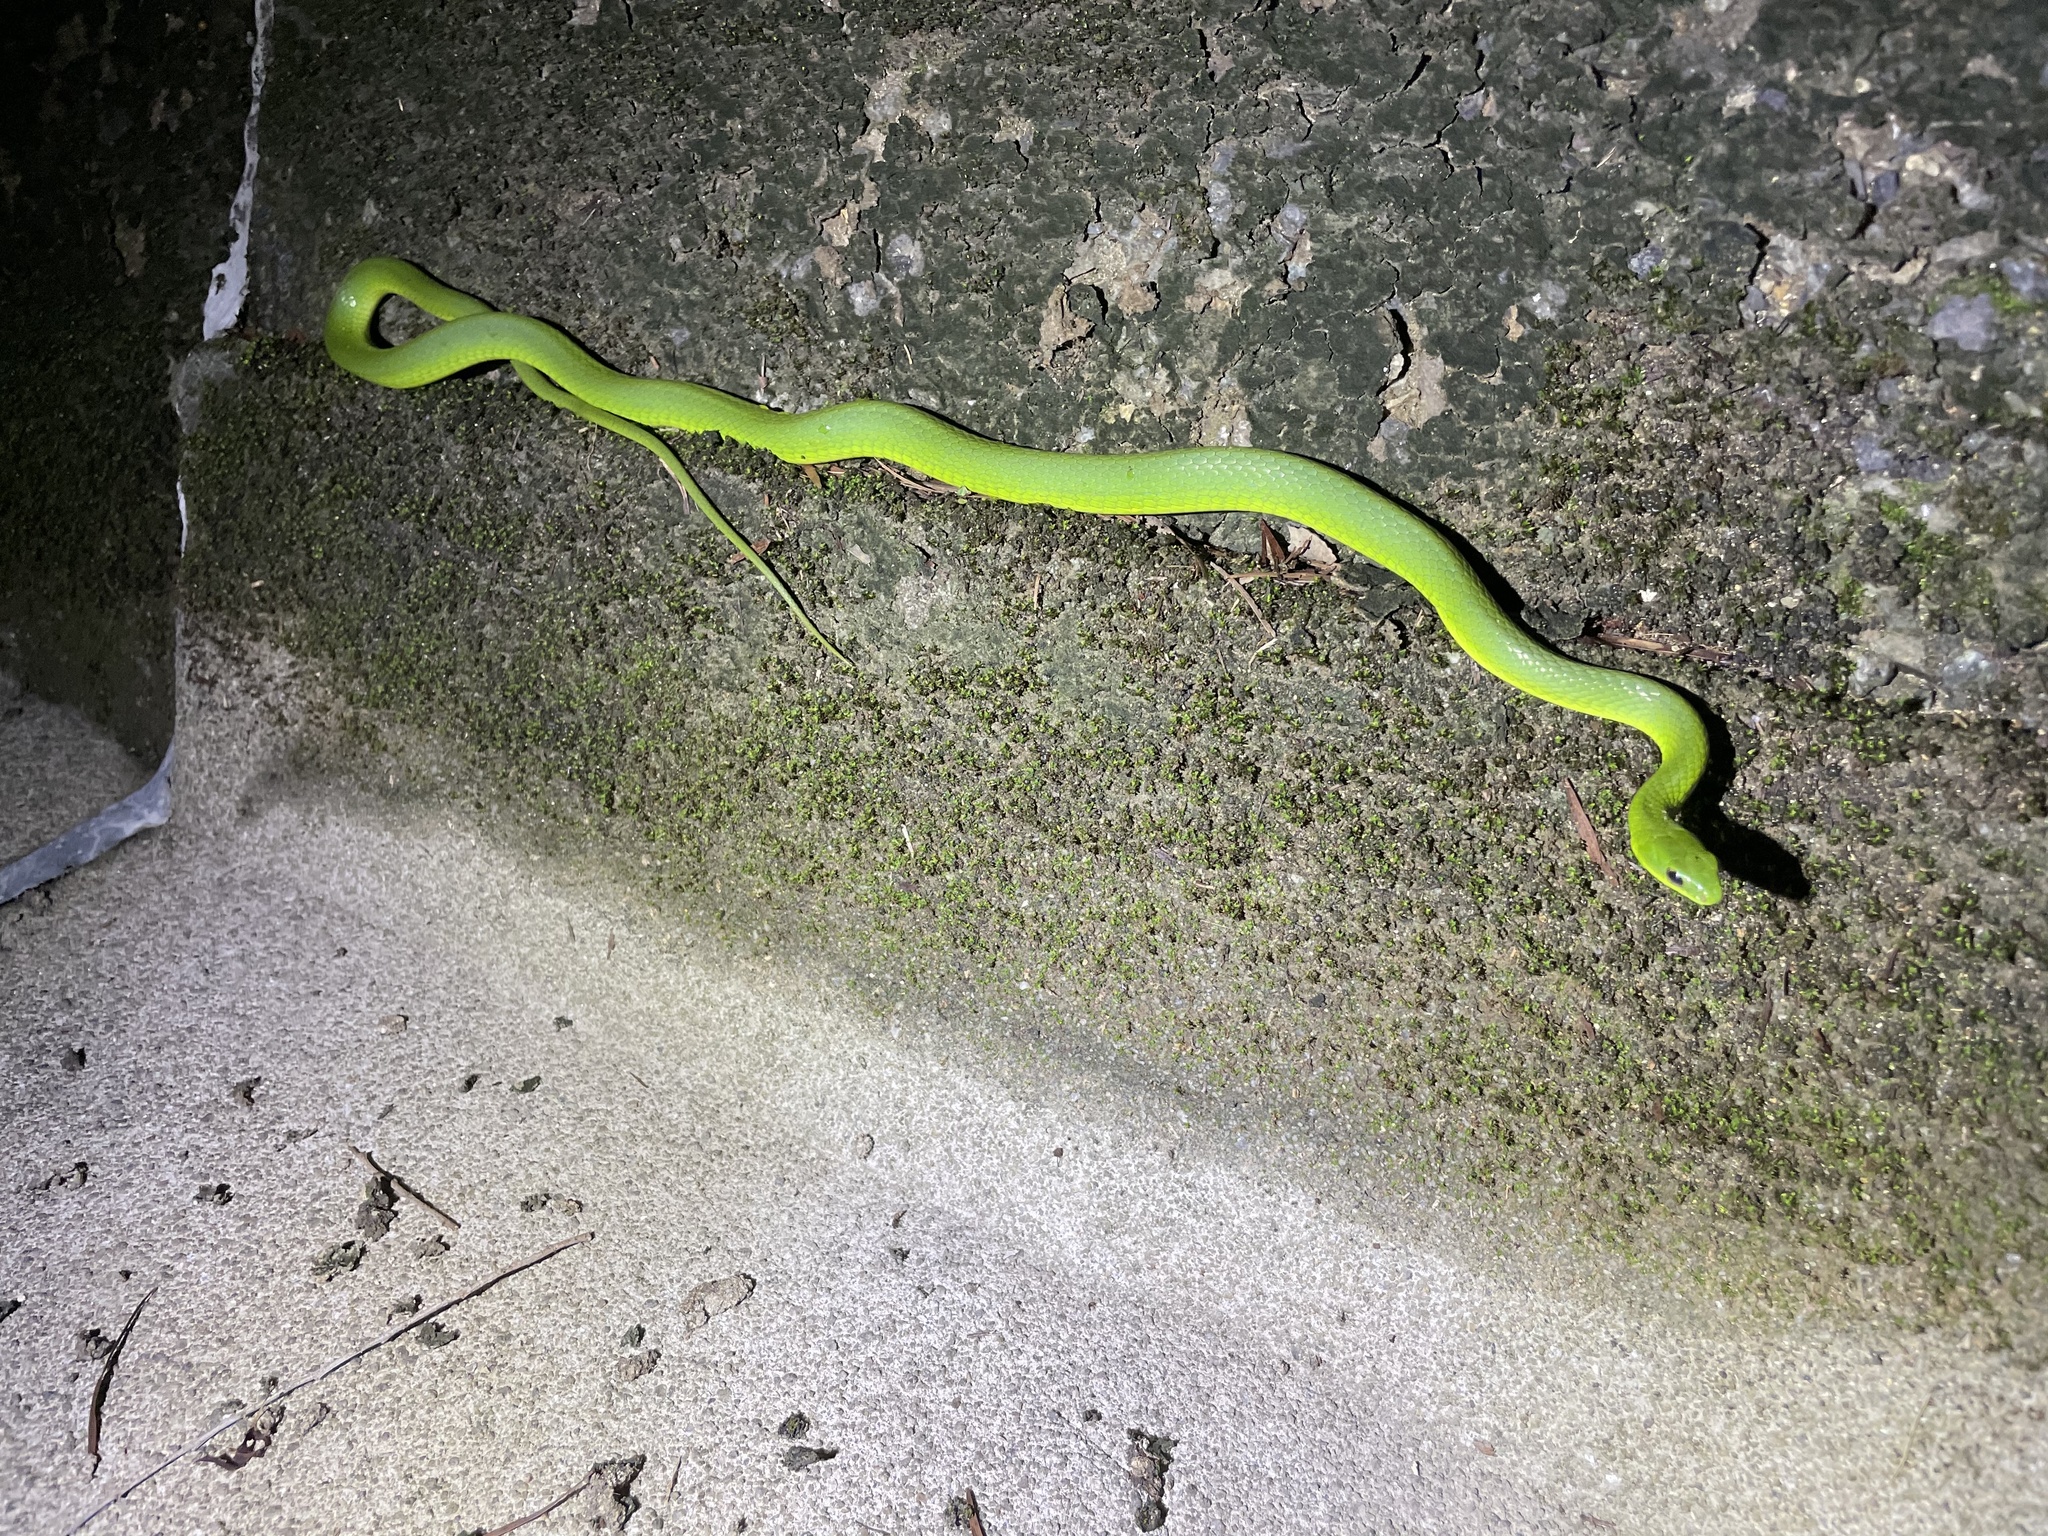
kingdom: Animalia
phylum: Chordata
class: Squamata
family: Colubridae
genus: Ptyas
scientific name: Ptyas major
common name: Chinese green snake
